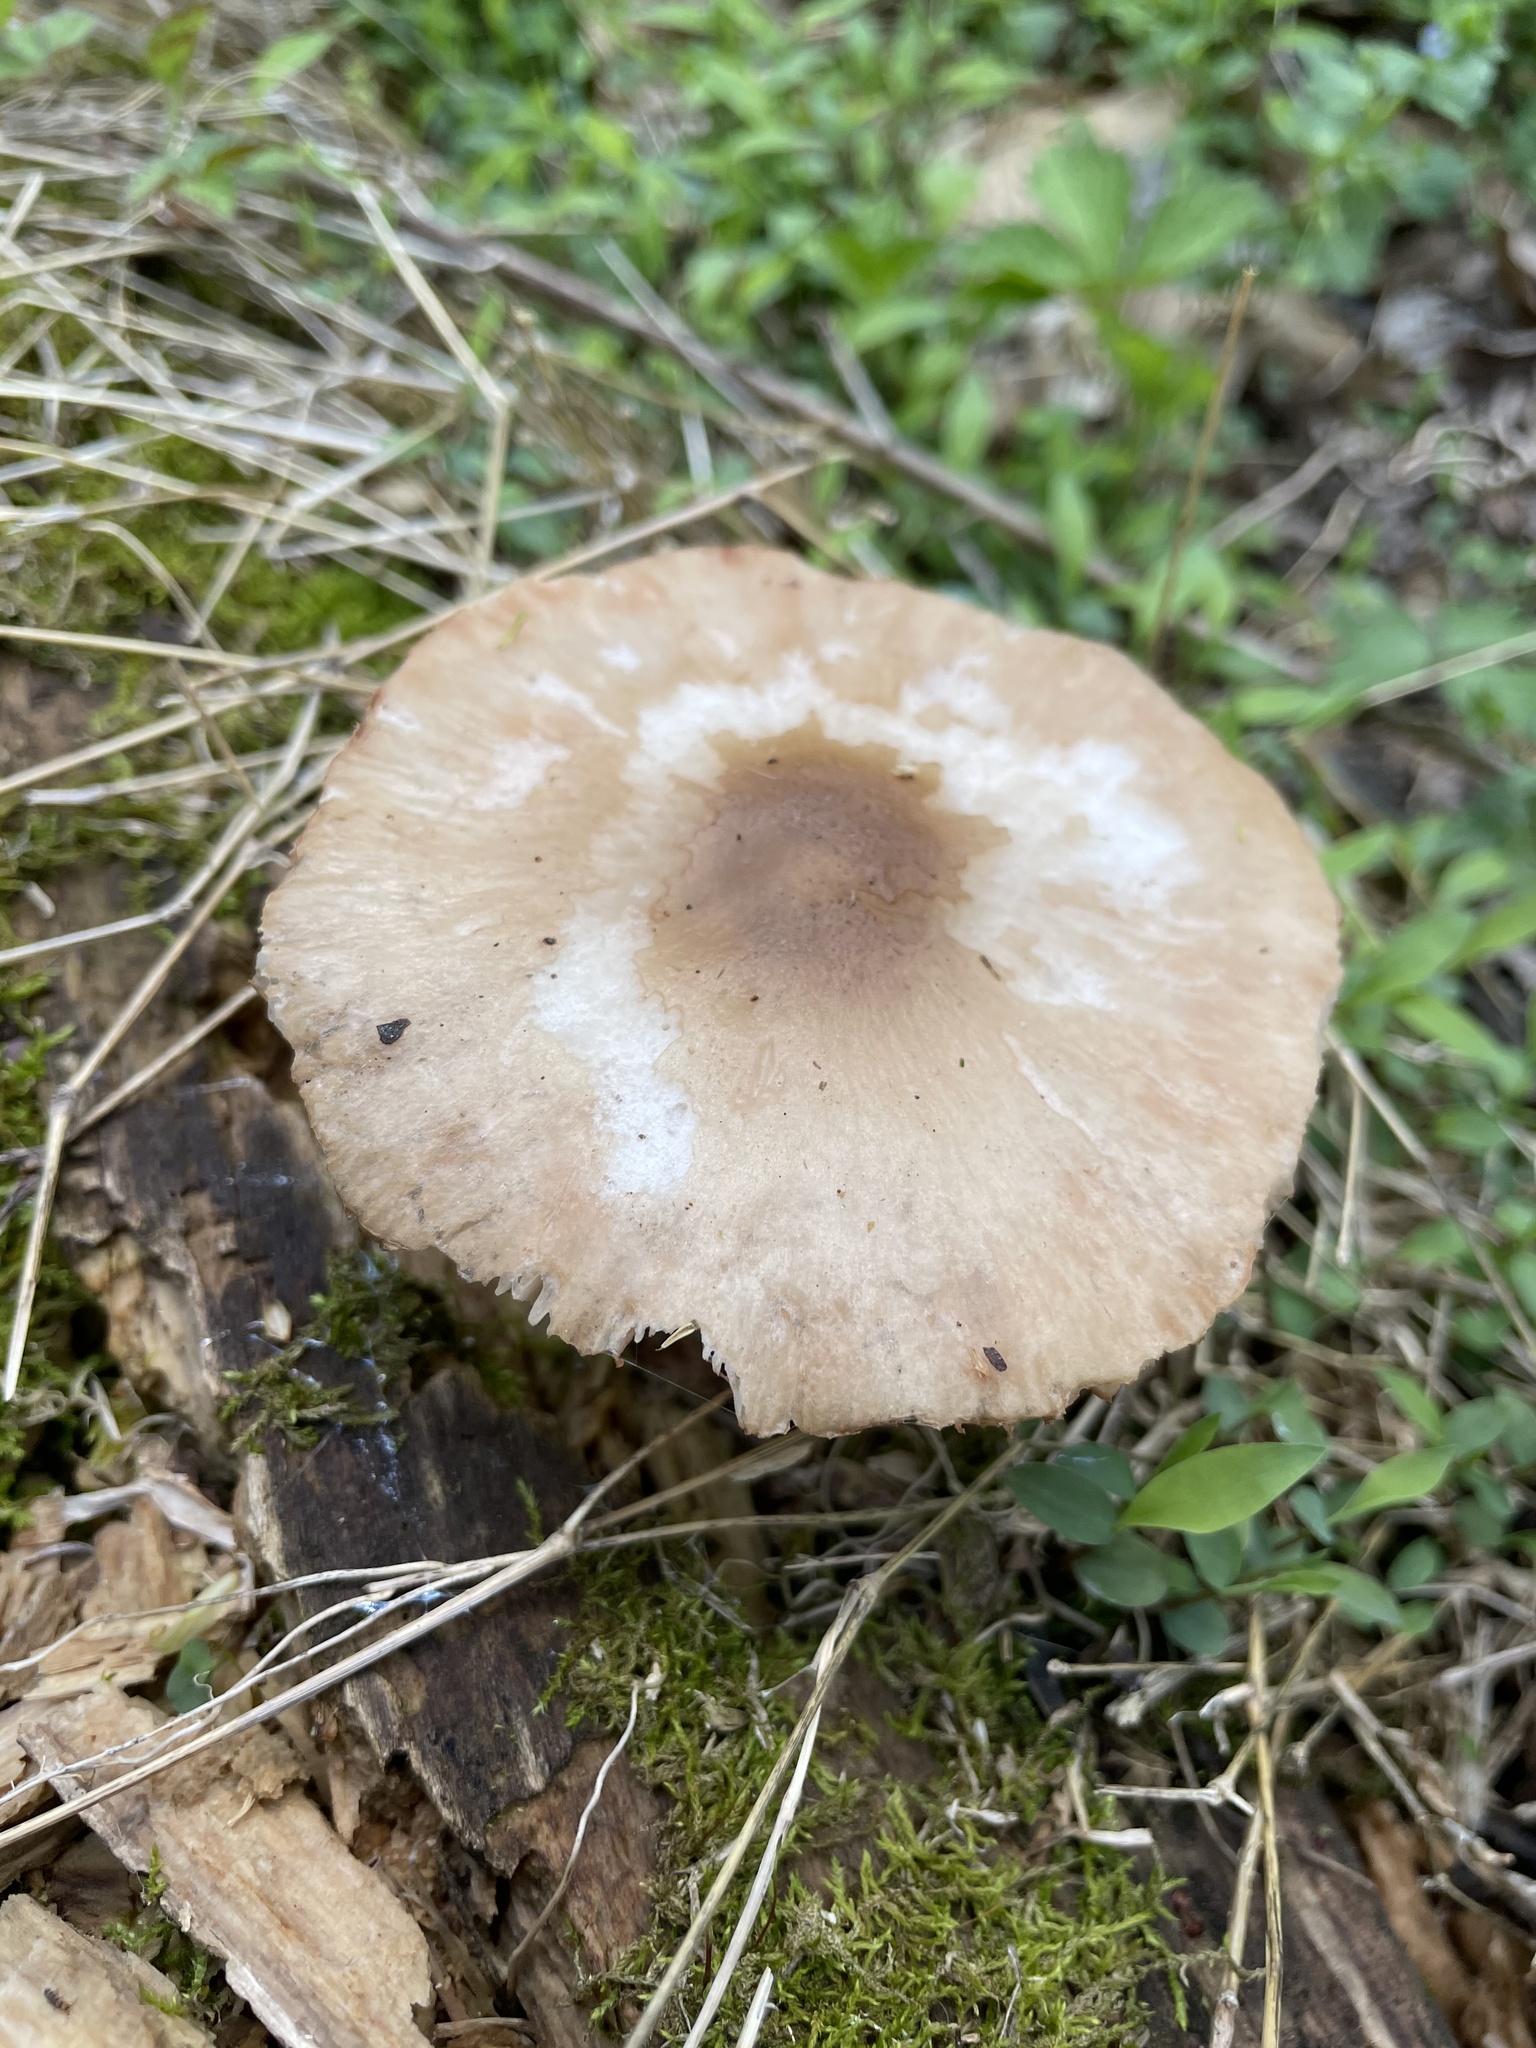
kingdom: Fungi
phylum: Basidiomycota
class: Agaricomycetes
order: Agaricales
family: Pluteaceae
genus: Pluteus
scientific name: Pluteus cervinus
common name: Deer shield
